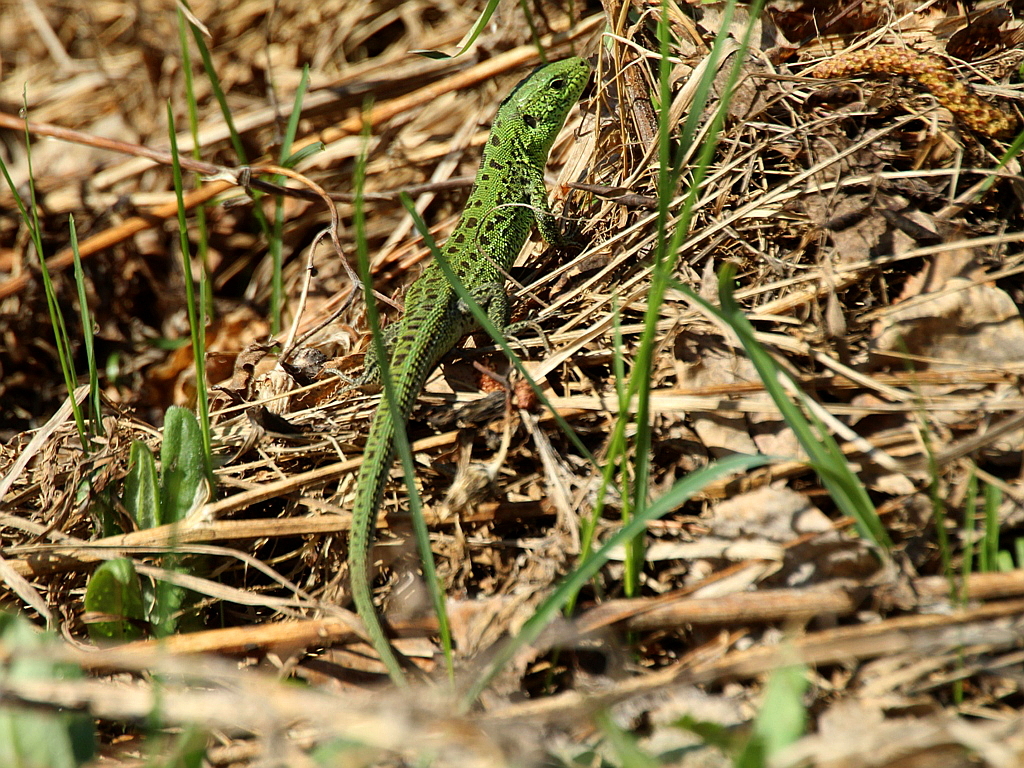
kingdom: Animalia
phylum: Chordata
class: Squamata
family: Lacertidae
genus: Lacerta
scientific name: Lacerta agilis
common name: Sand lizard
